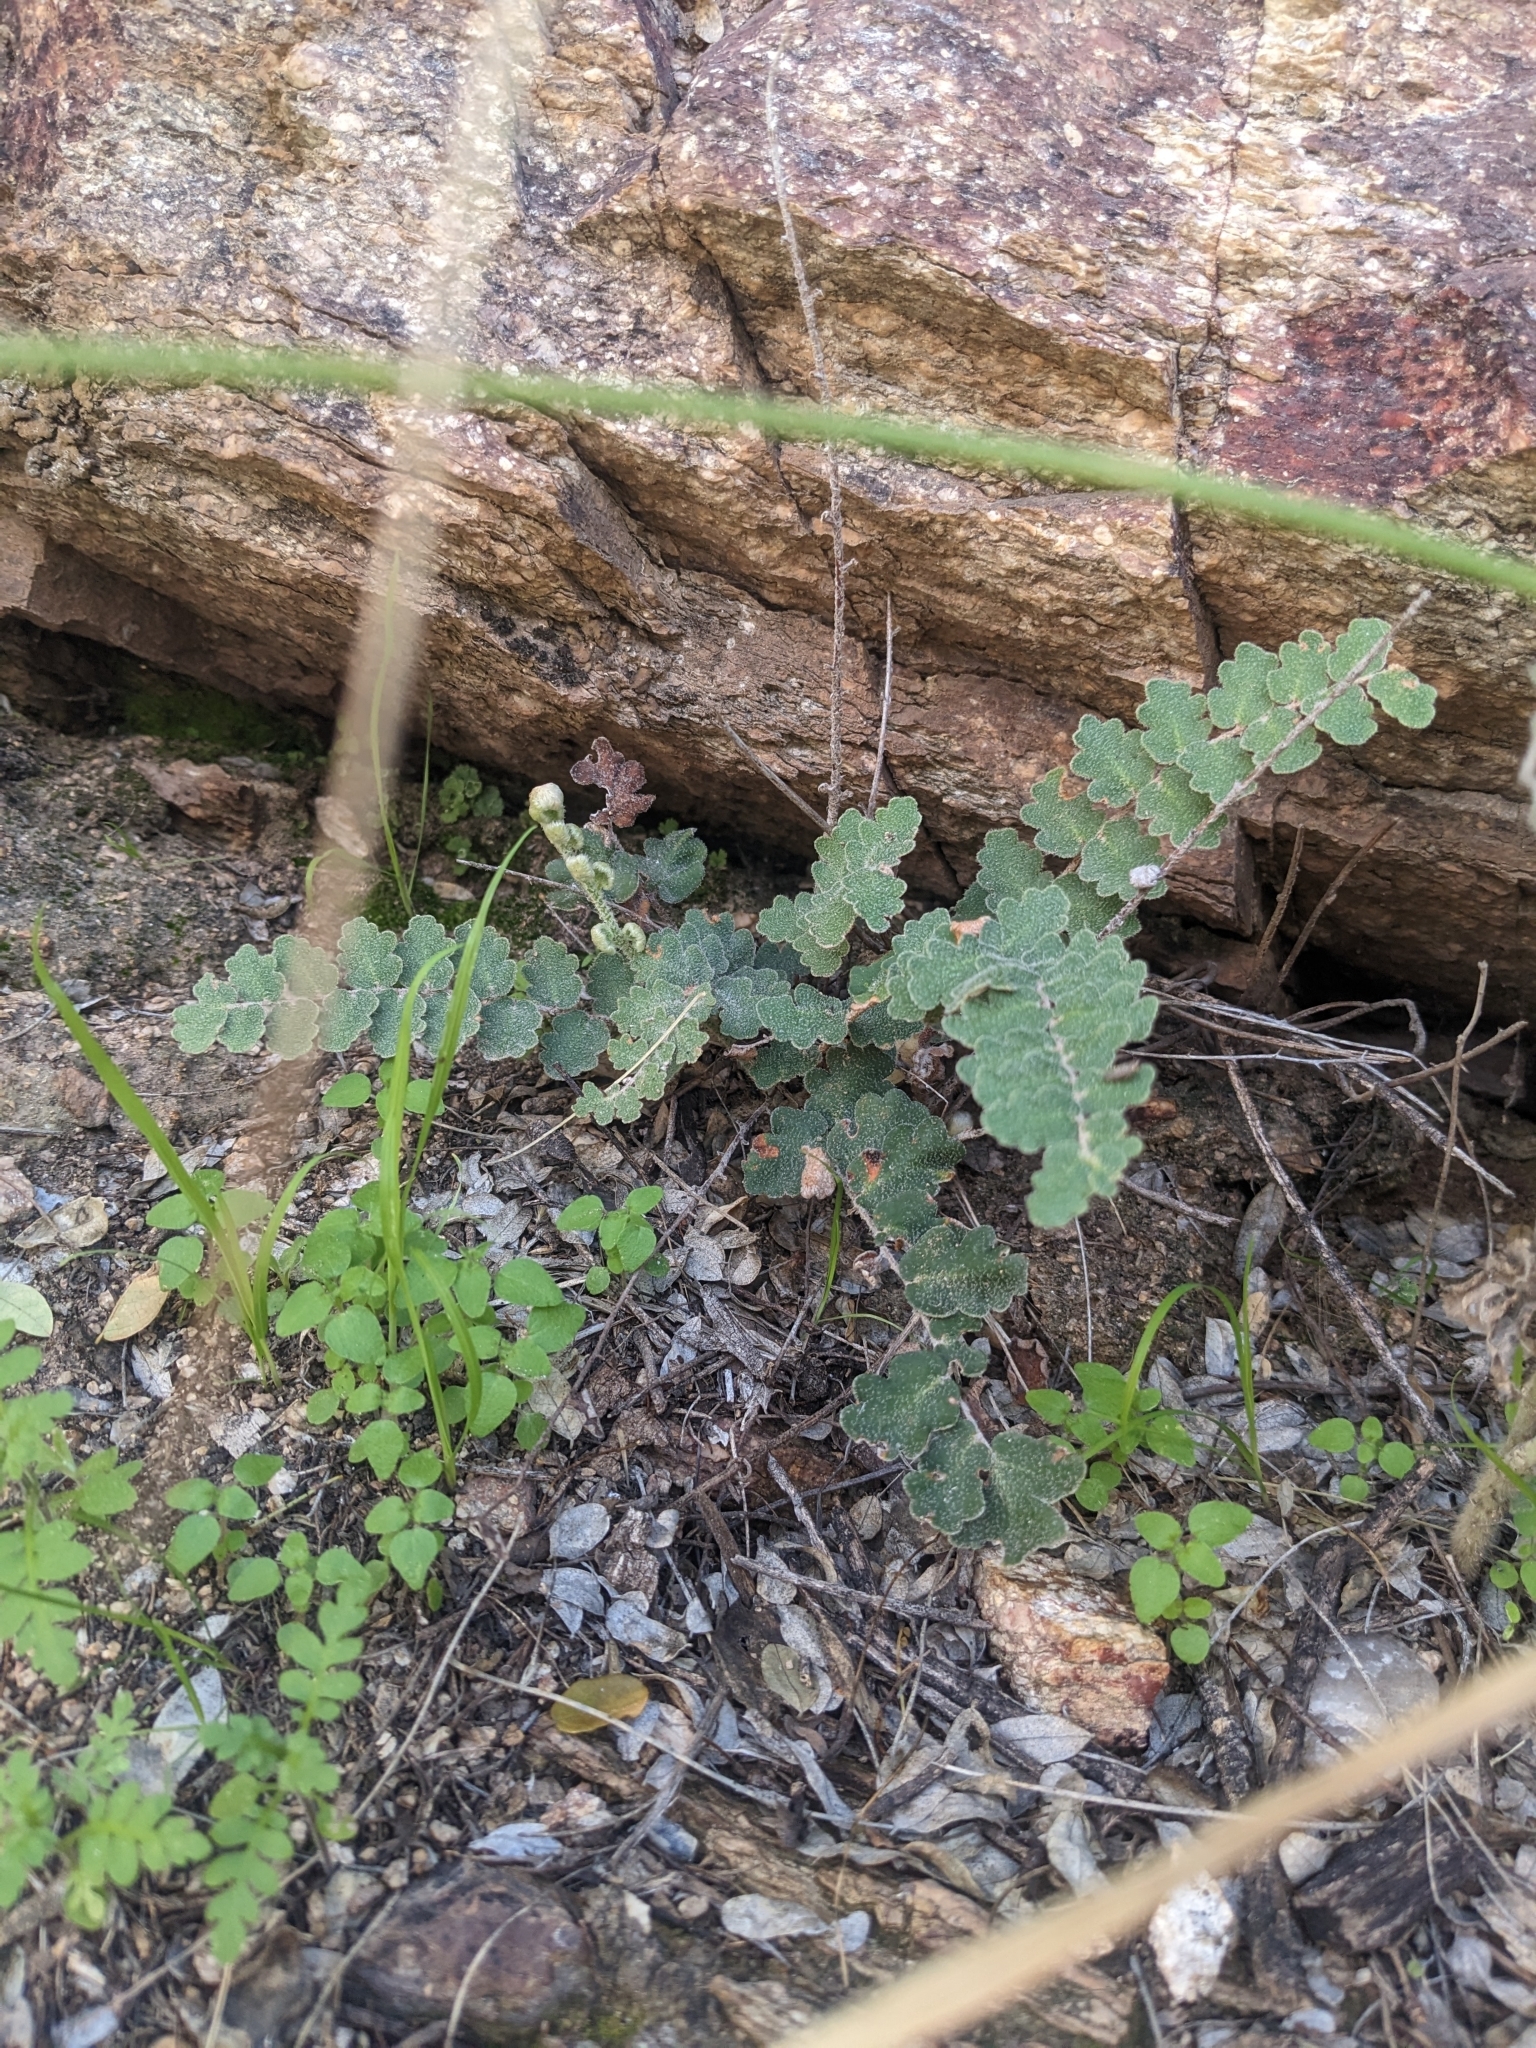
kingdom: Plantae
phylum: Tracheophyta
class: Polypodiopsida
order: Polypodiales
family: Pteridaceae
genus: Astrolepis
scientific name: Astrolepis sinuata
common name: Wavy scaly cloakfern
